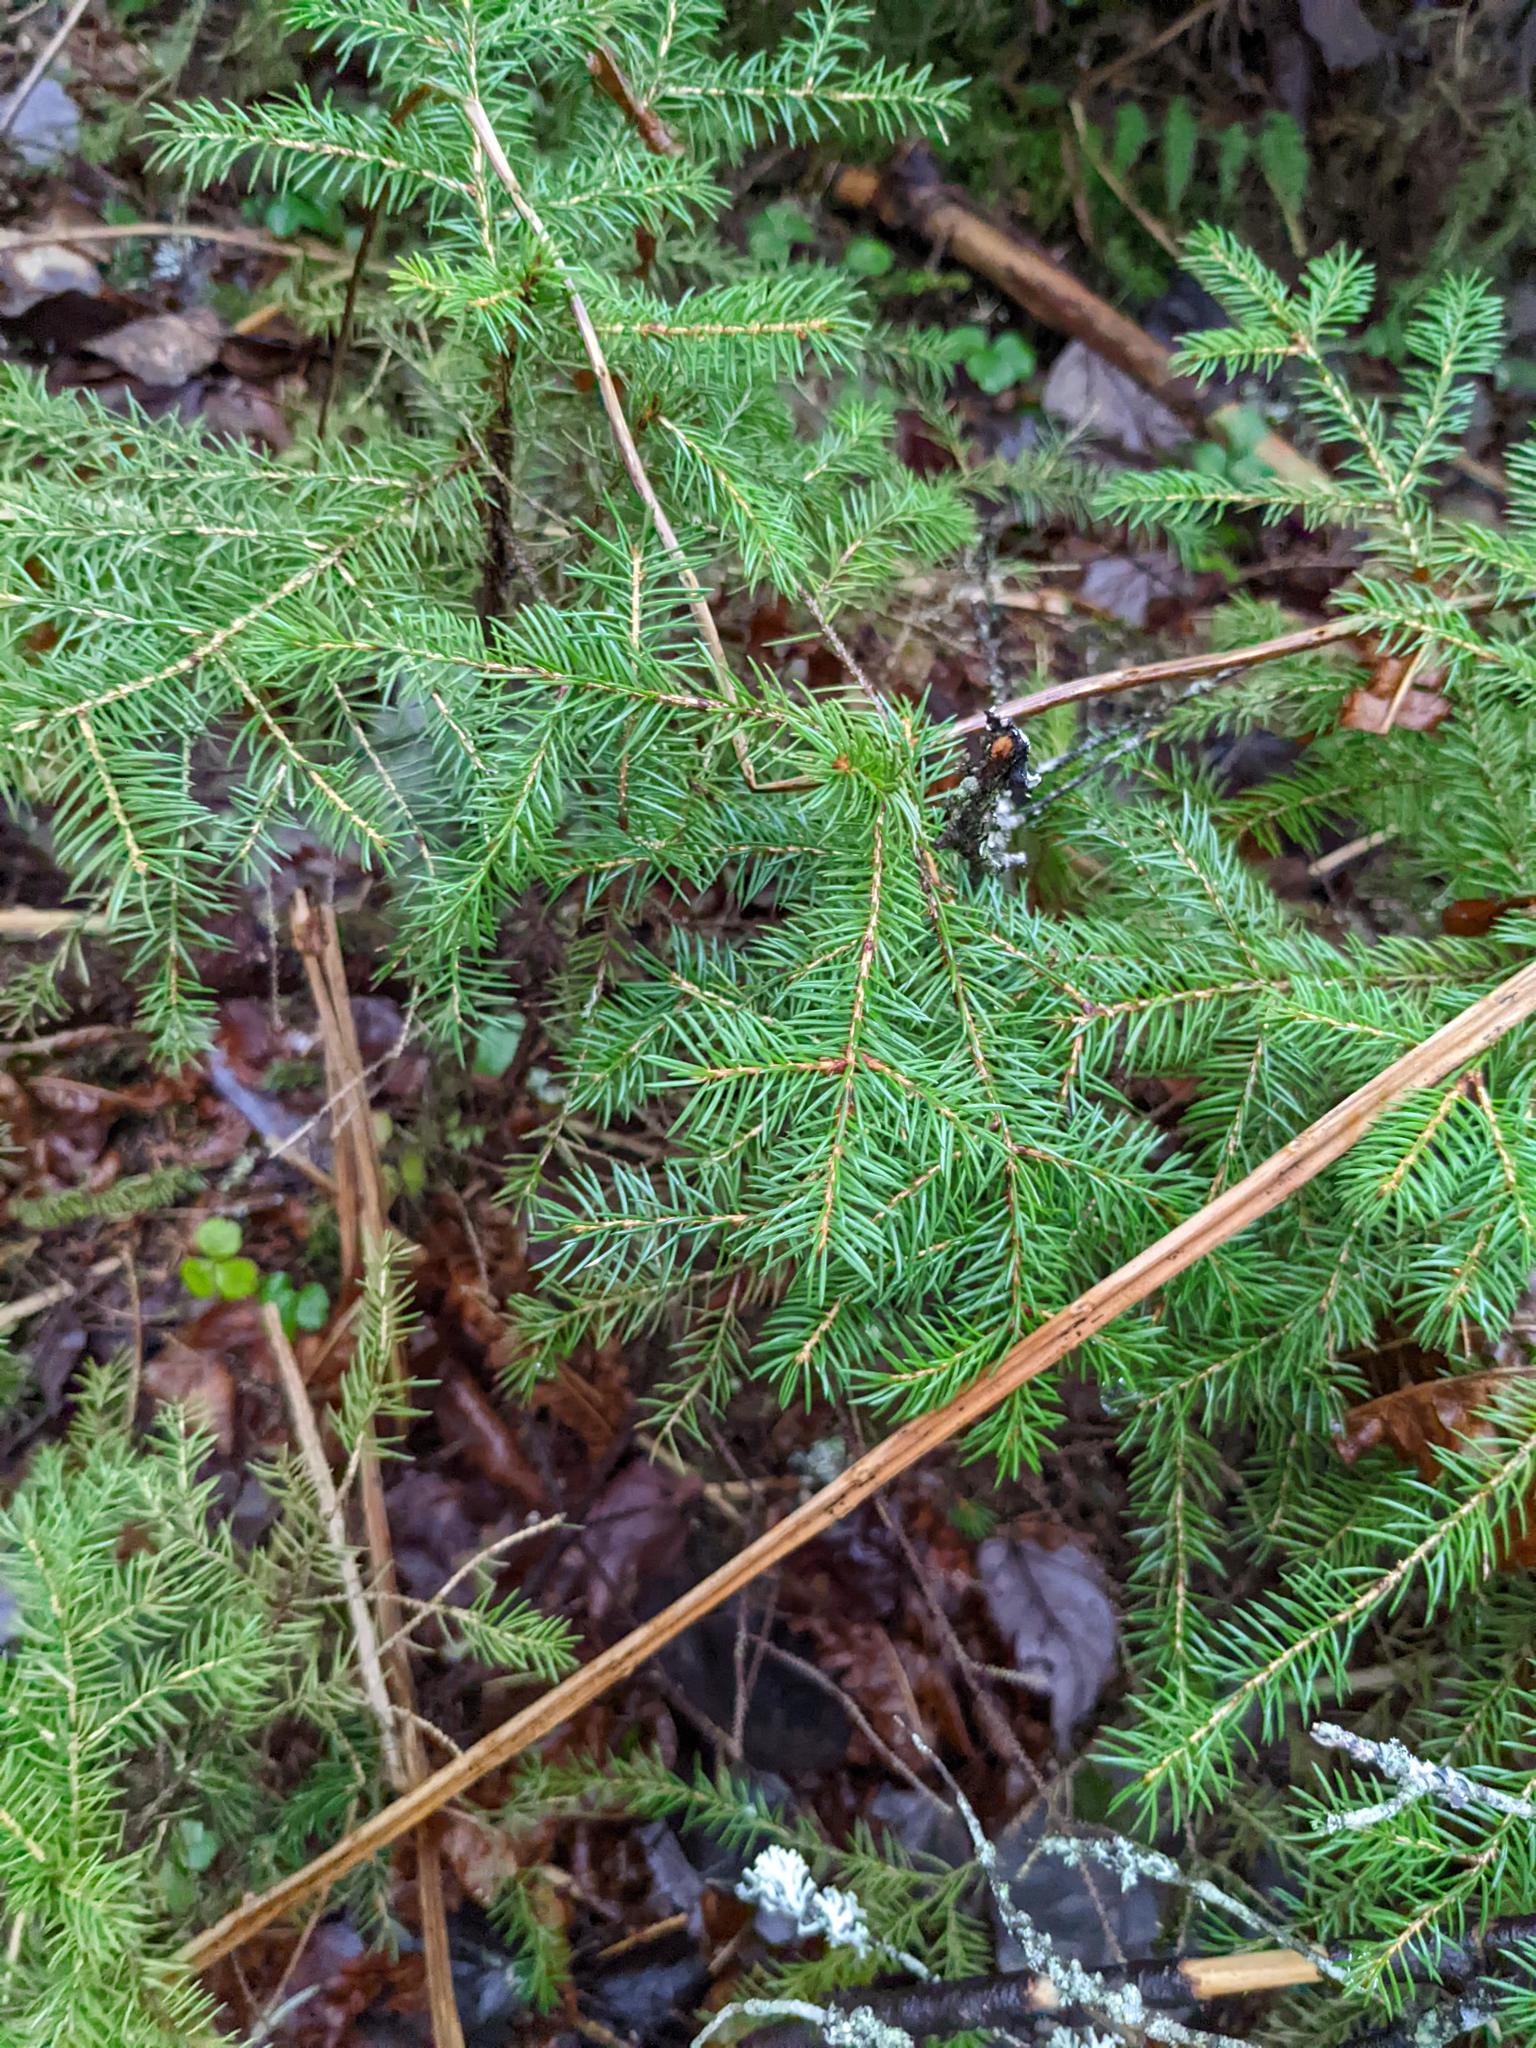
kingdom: Plantae
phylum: Tracheophyta
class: Pinopsida
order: Pinales
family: Pinaceae
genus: Picea
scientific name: Picea rubens
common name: Red spruce
